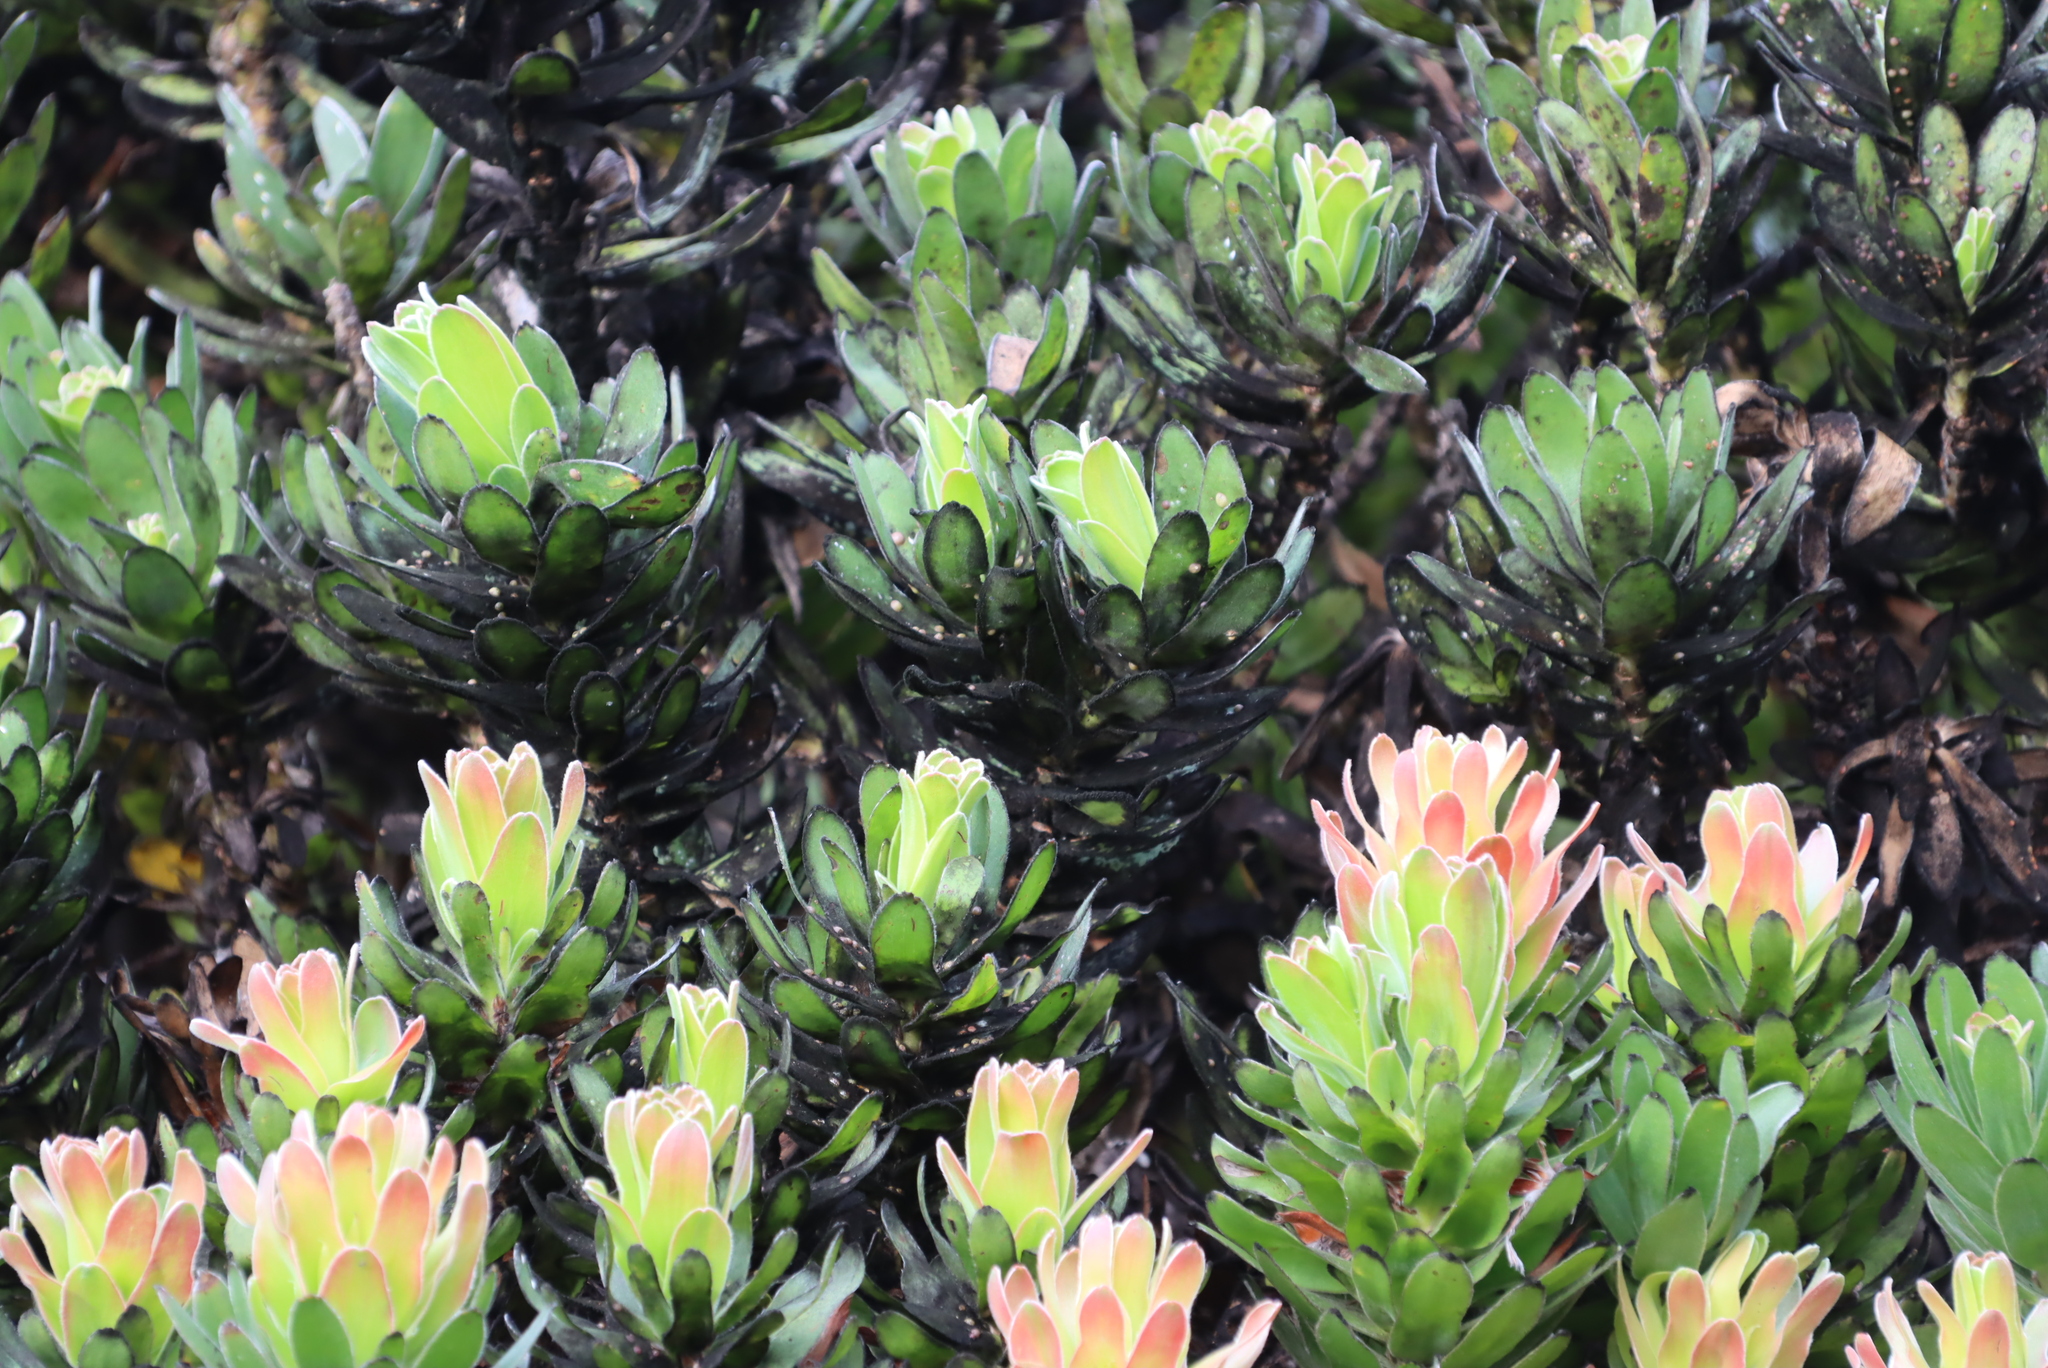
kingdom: Plantae
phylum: Tracheophyta
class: Magnoliopsida
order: Proteales
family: Proteaceae
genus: Mimetes
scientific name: Mimetes fimbriifolius
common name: Fringed bottlebrush
